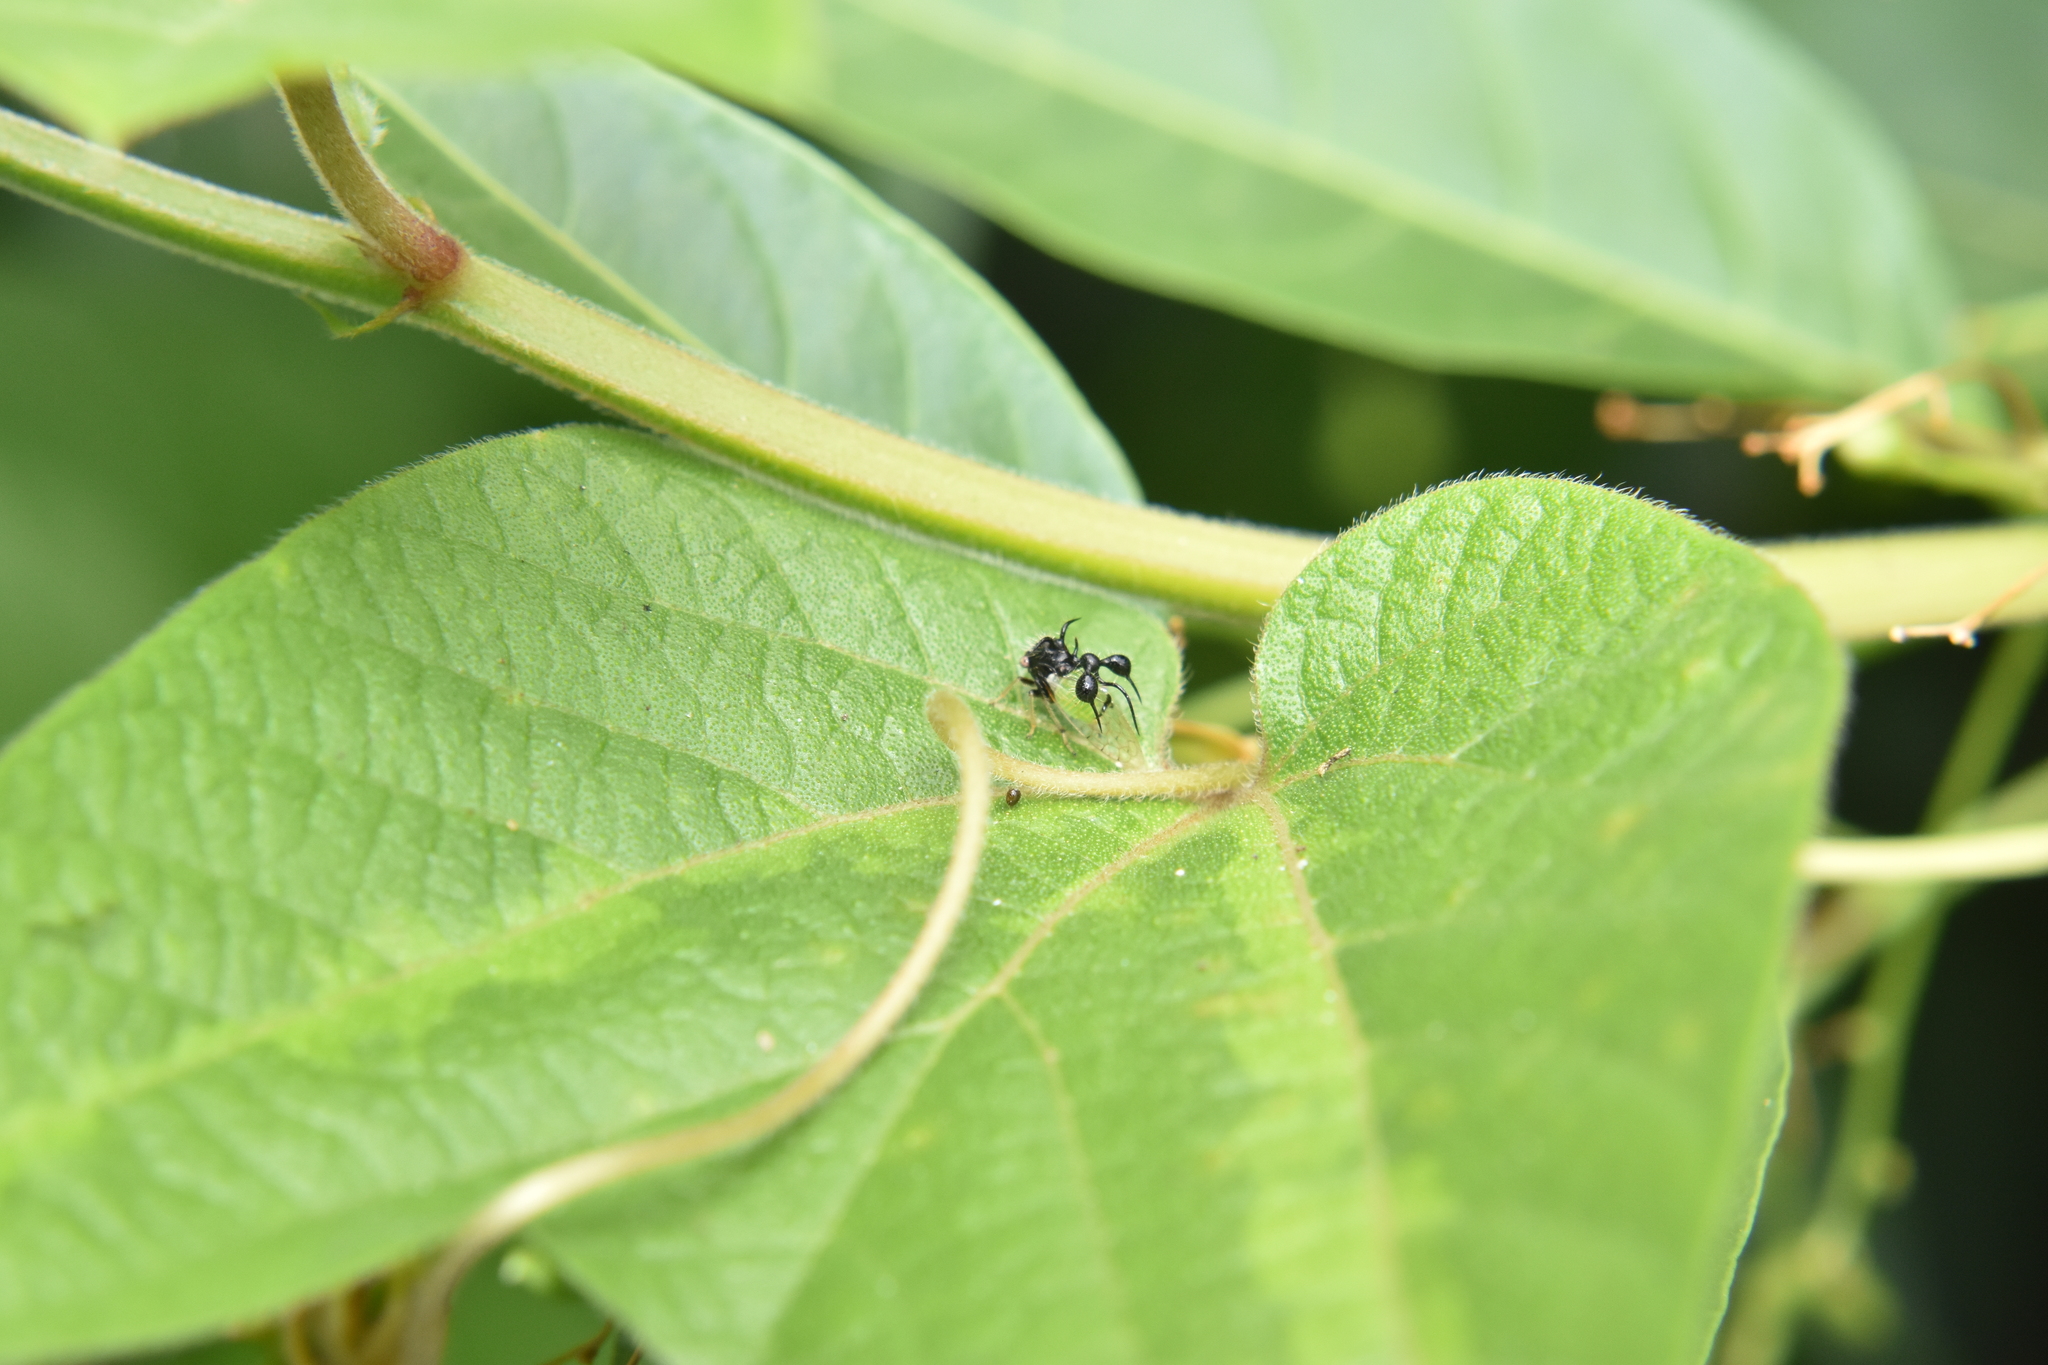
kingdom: Animalia
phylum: Arthropoda
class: Insecta
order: Hemiptera
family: Membracidae
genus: Cyphonia
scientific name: Cyphonia clavata
